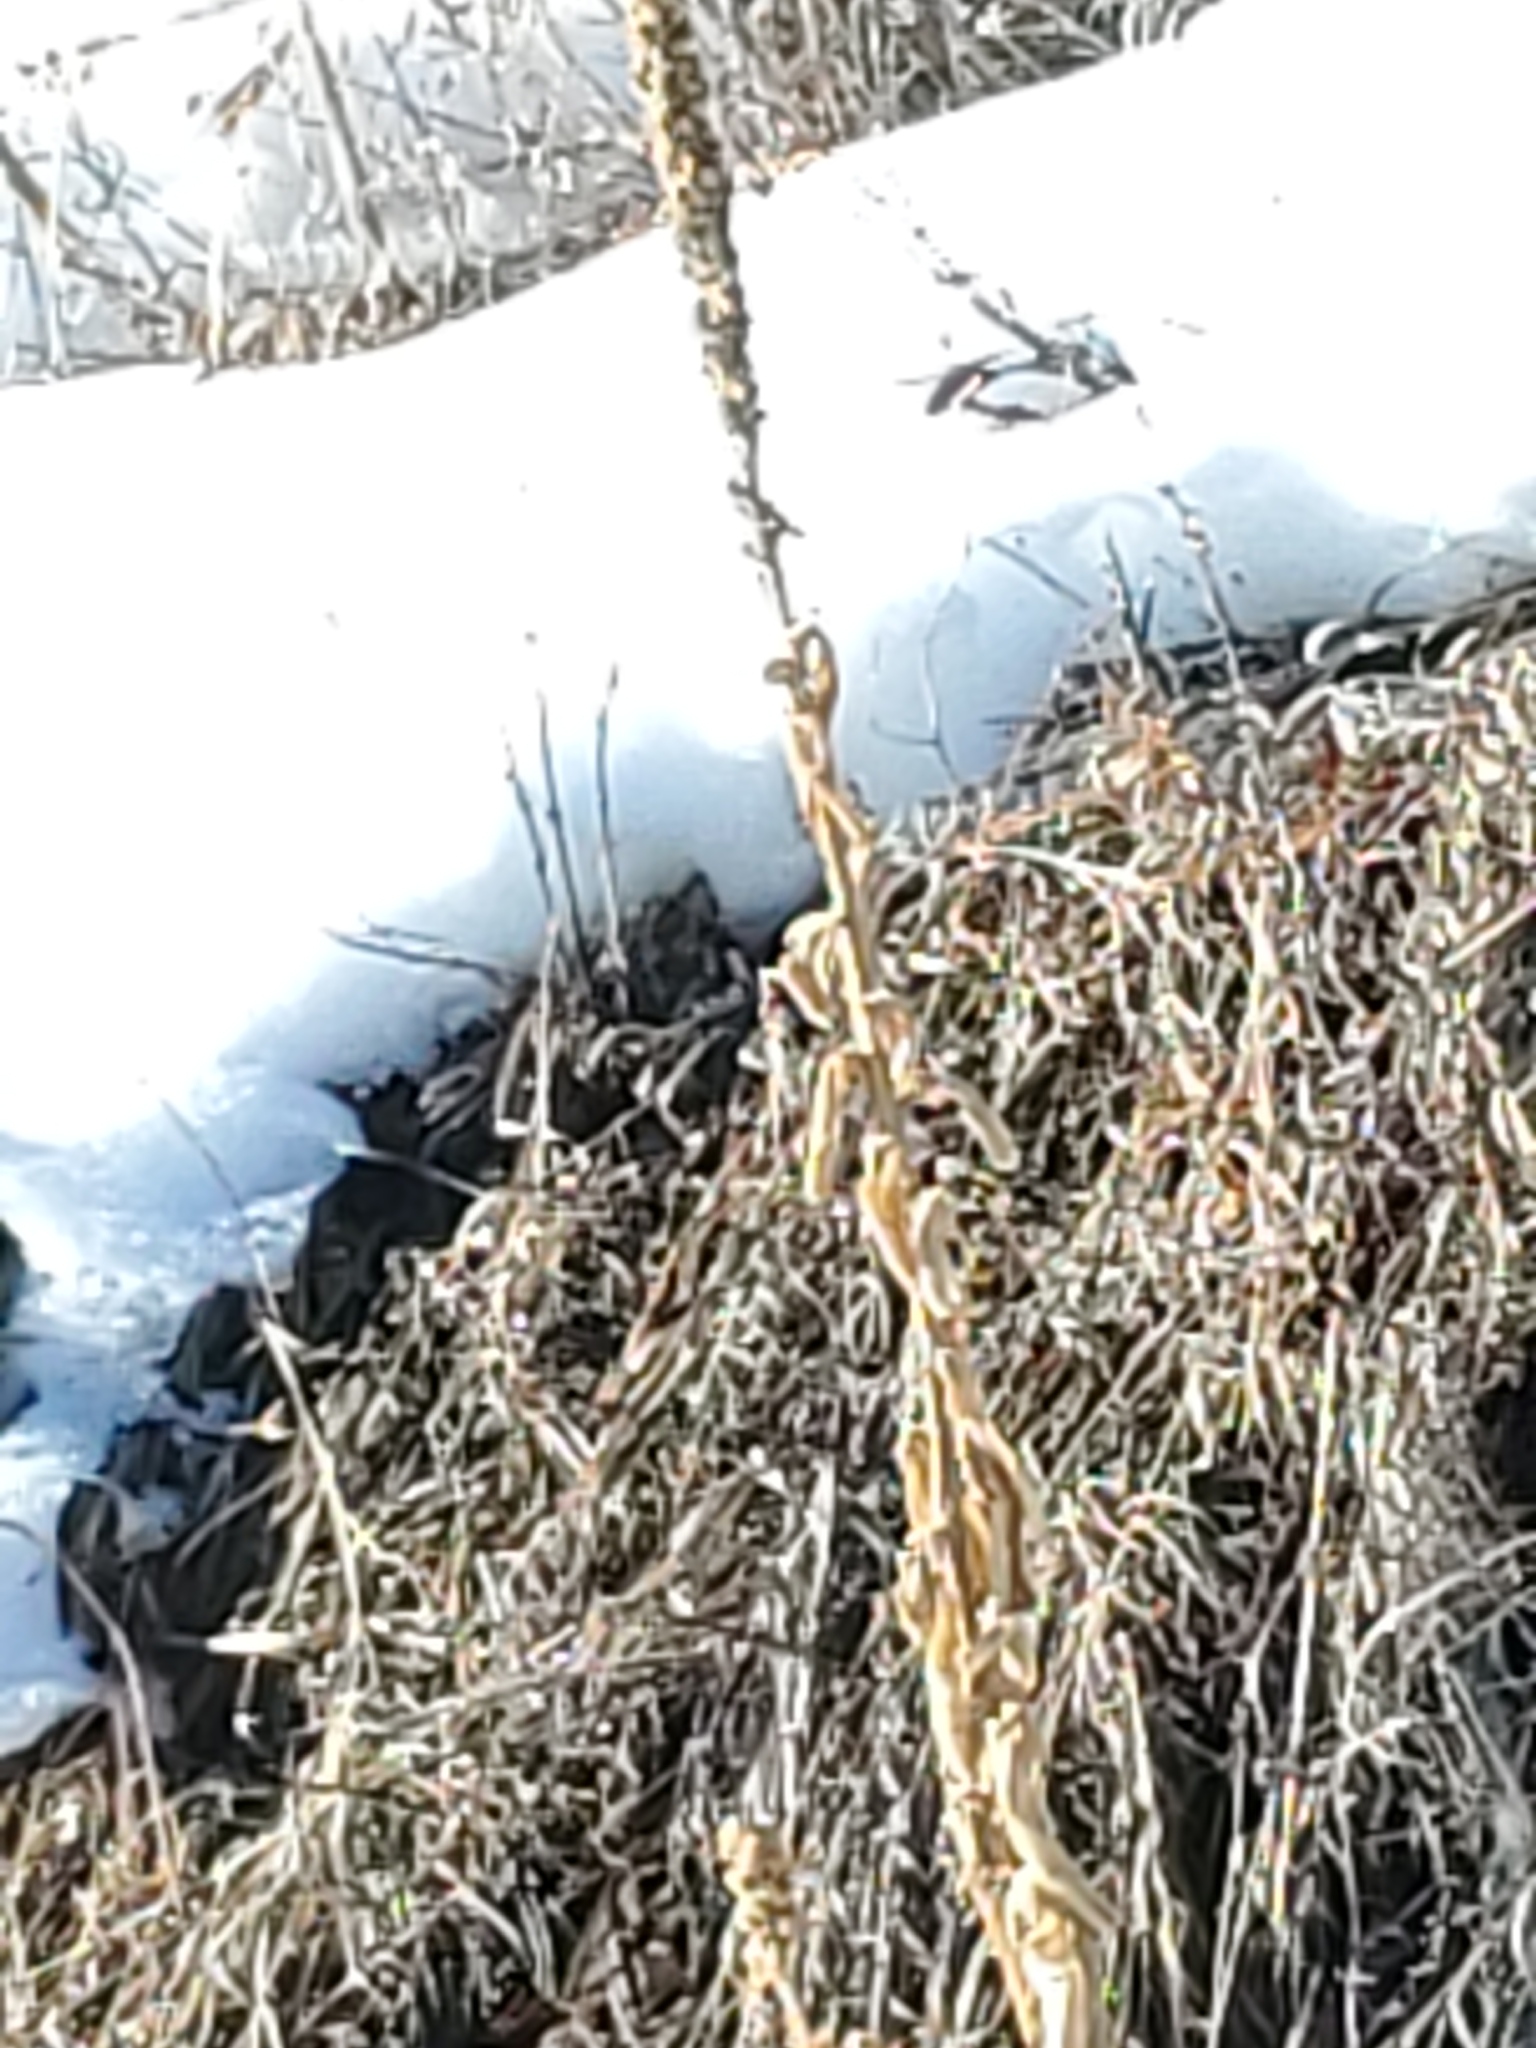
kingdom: Plantae
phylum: Tracheophyta
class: Magnoliopsida
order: Lamiales
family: Scrophulariaceae
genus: Verbascum
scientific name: Verbascum thapsus
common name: Common mullein
